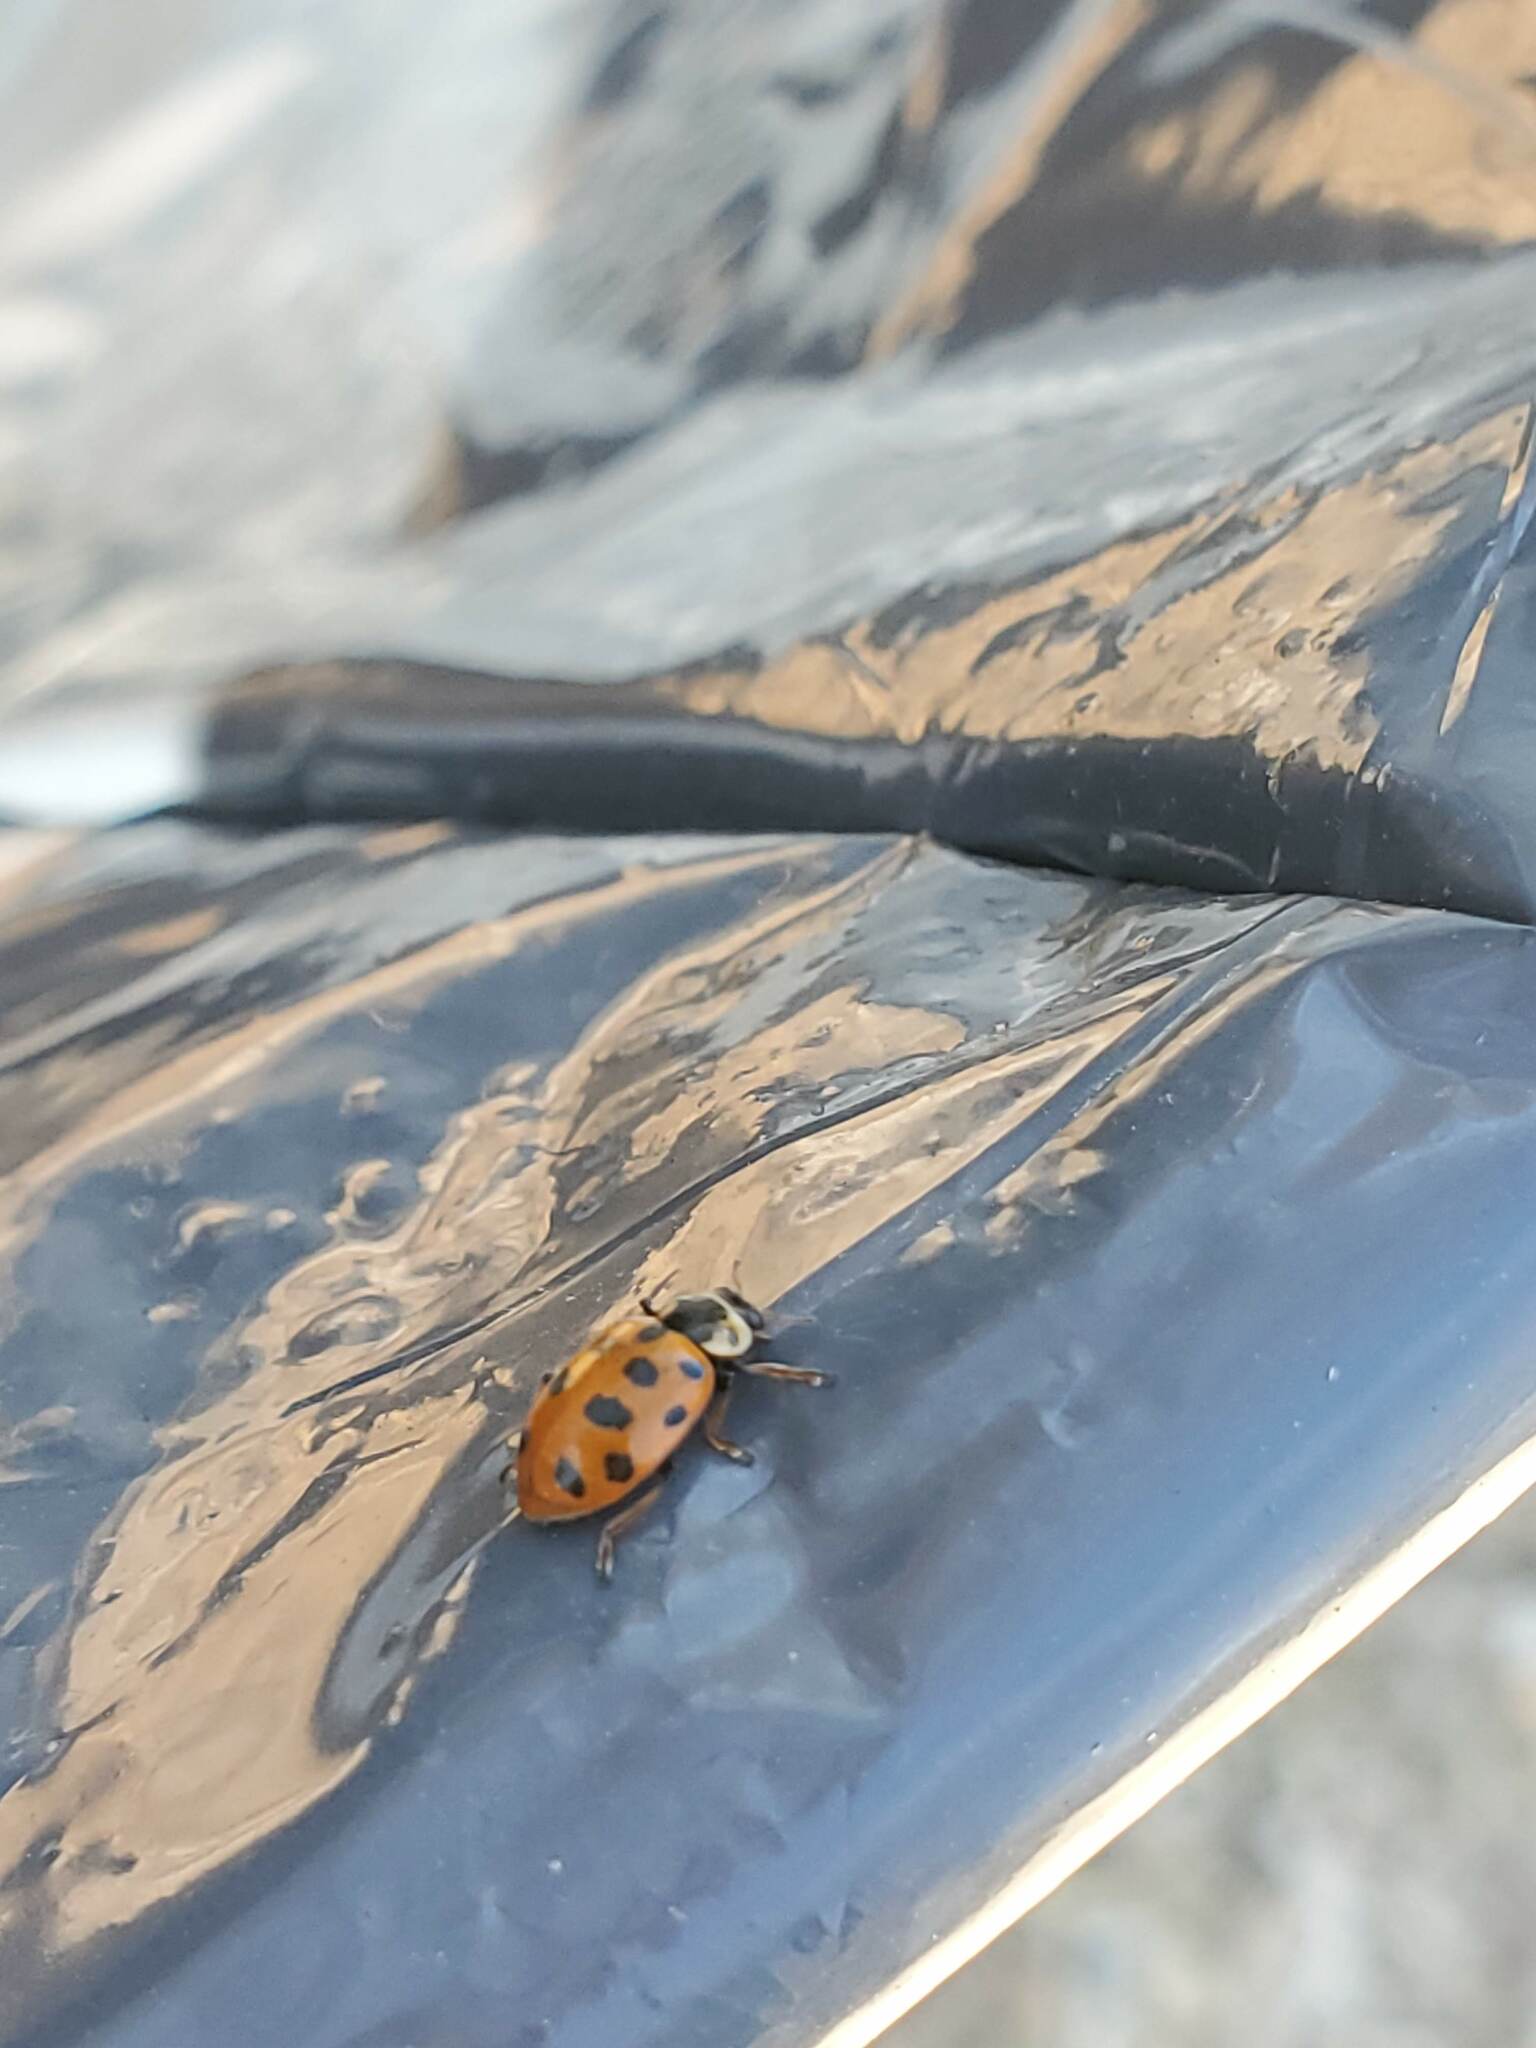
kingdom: Animalia
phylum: Arthropoda
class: Insecta
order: Coleoptera
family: Coccinellidae
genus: Hippodamia
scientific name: Hippodamia tredecimpunctata
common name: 13-spot ladybird
